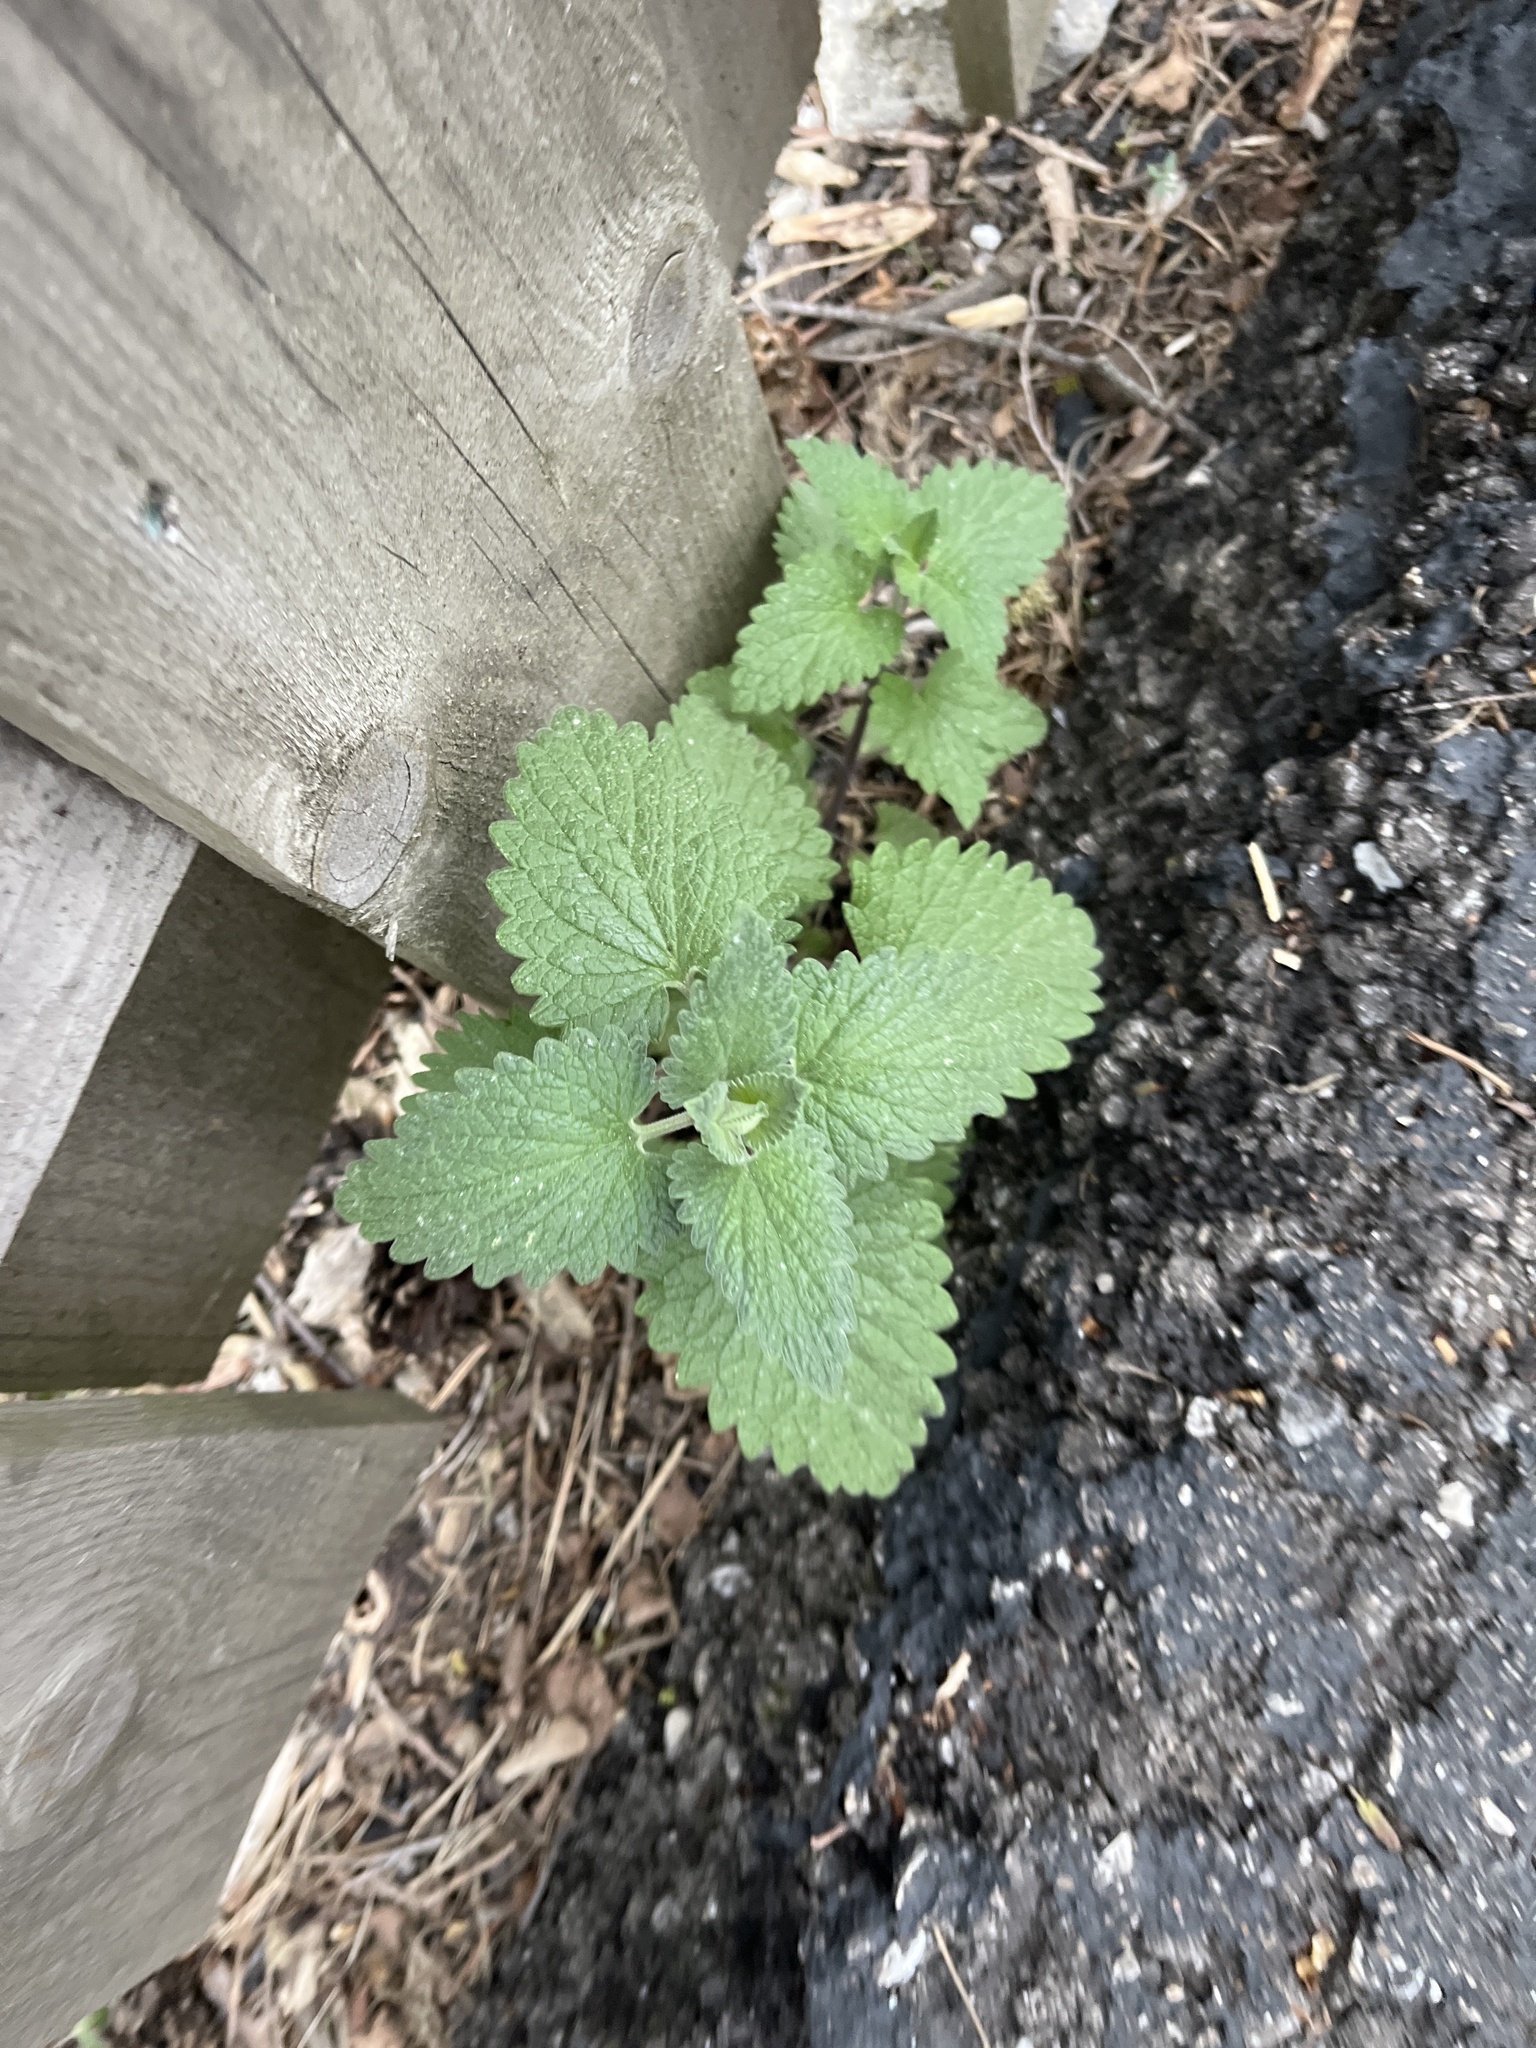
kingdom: Plantae
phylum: Tracheophyta
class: Magnoliopsida
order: Lamiales
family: Lamiaceae
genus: Nepeta
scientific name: Nepeta cataria
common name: Catnip
